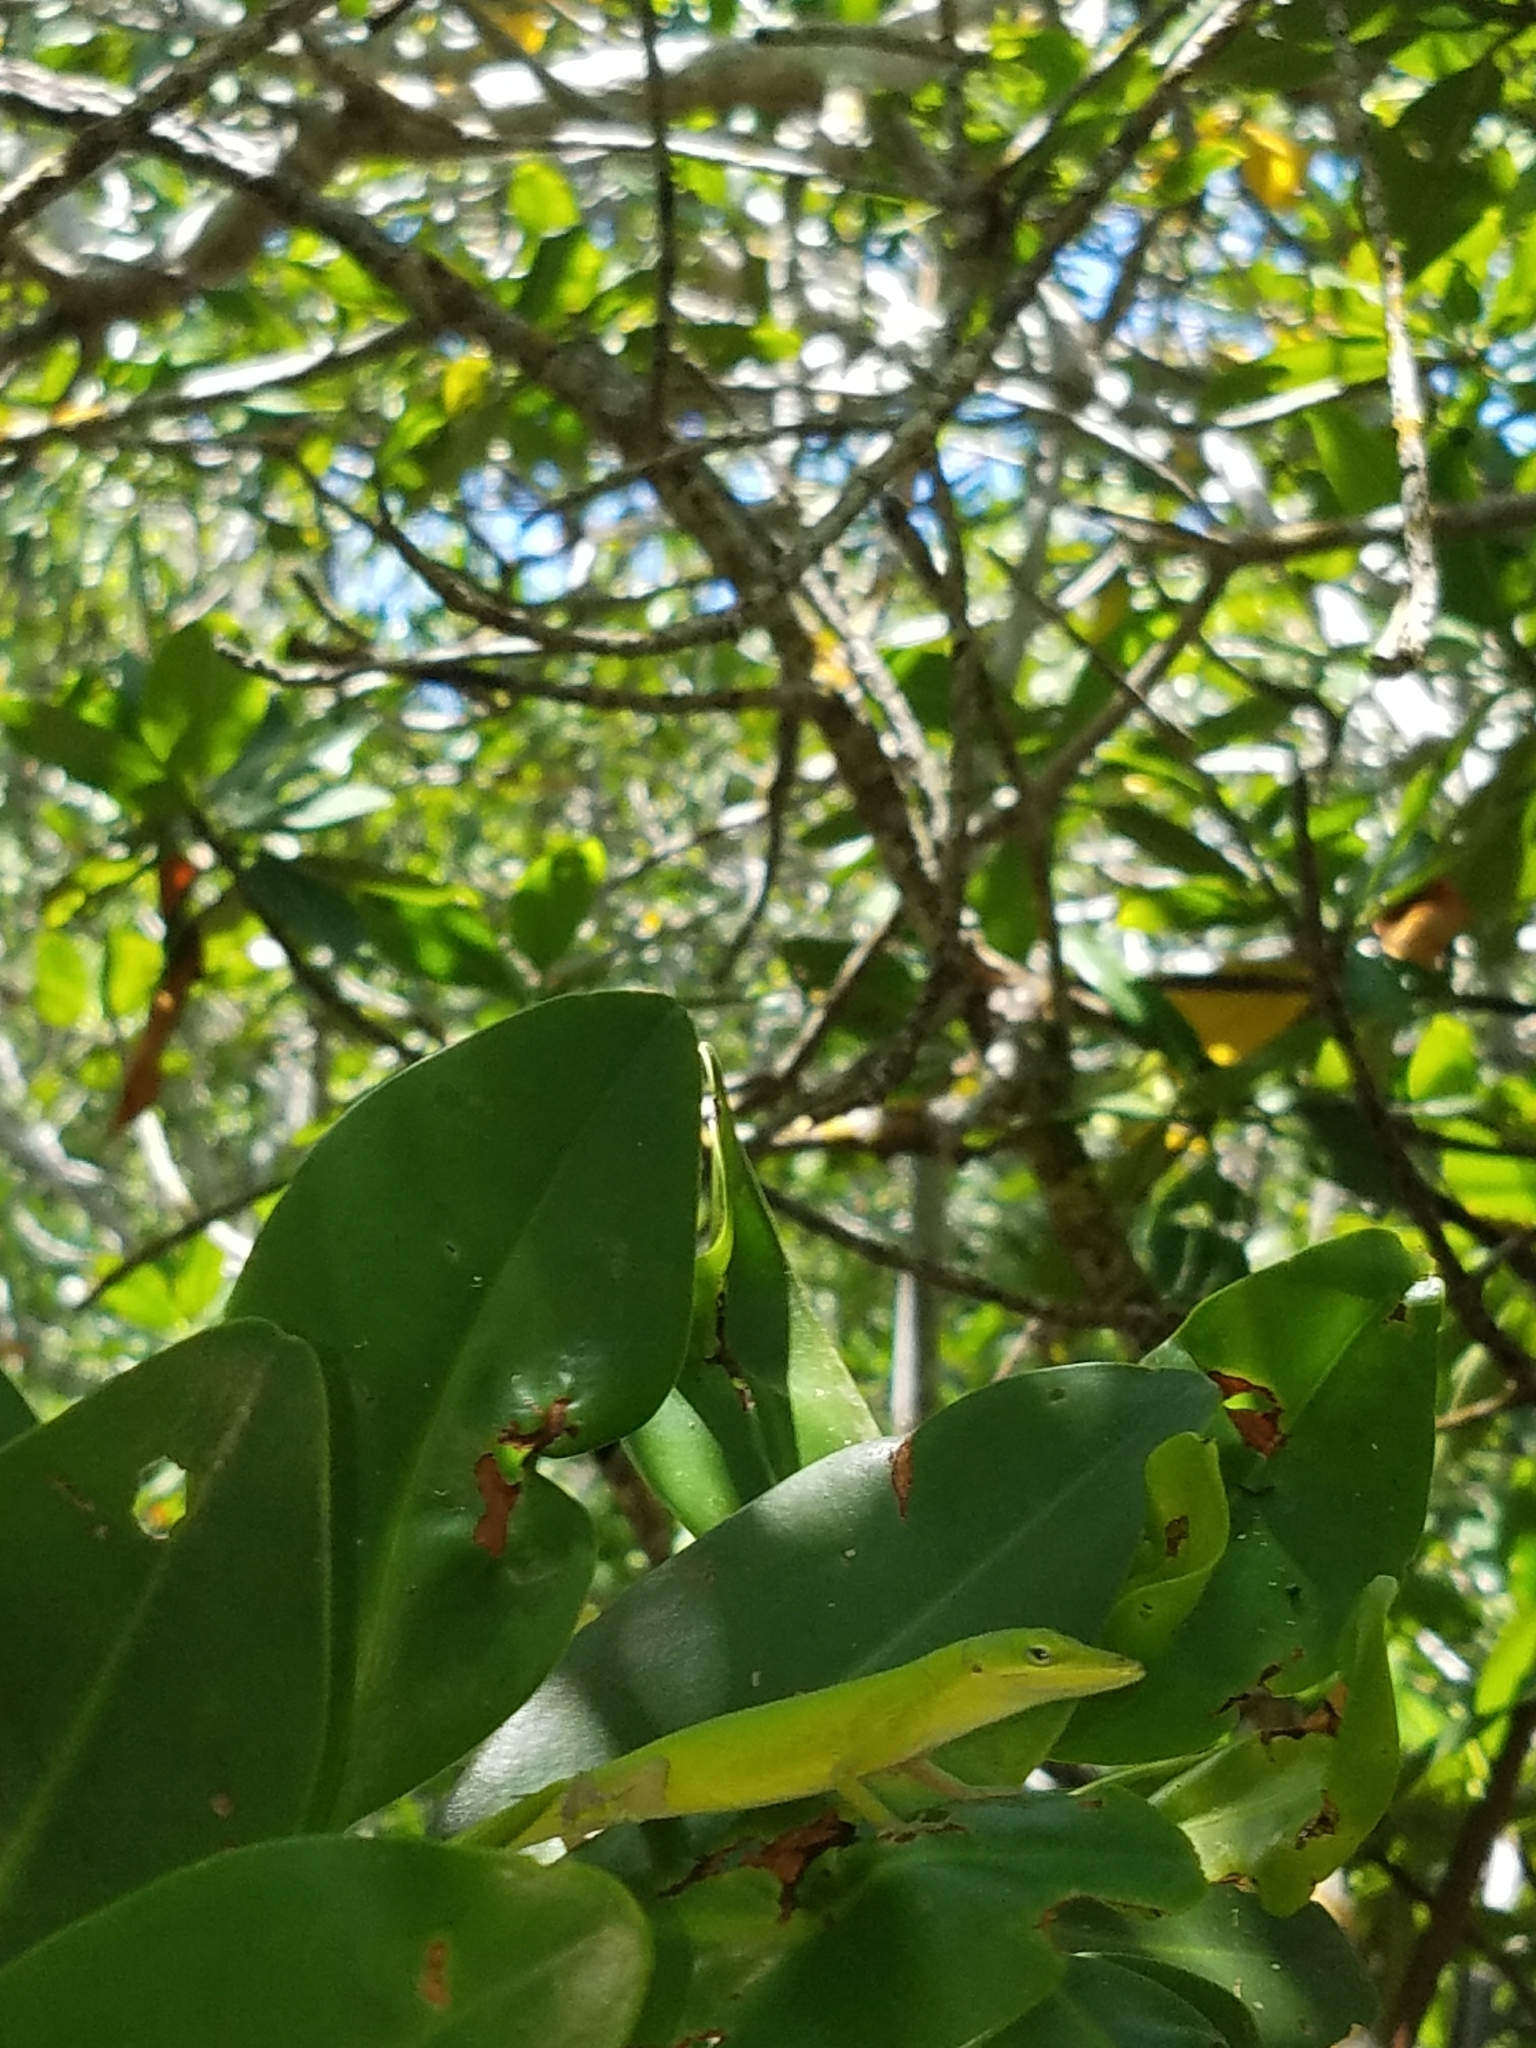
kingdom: Animalia
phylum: Chordata
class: Squamata
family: Dactyloidae
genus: Anolis
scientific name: Anolis carolinensis
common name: Green anole
